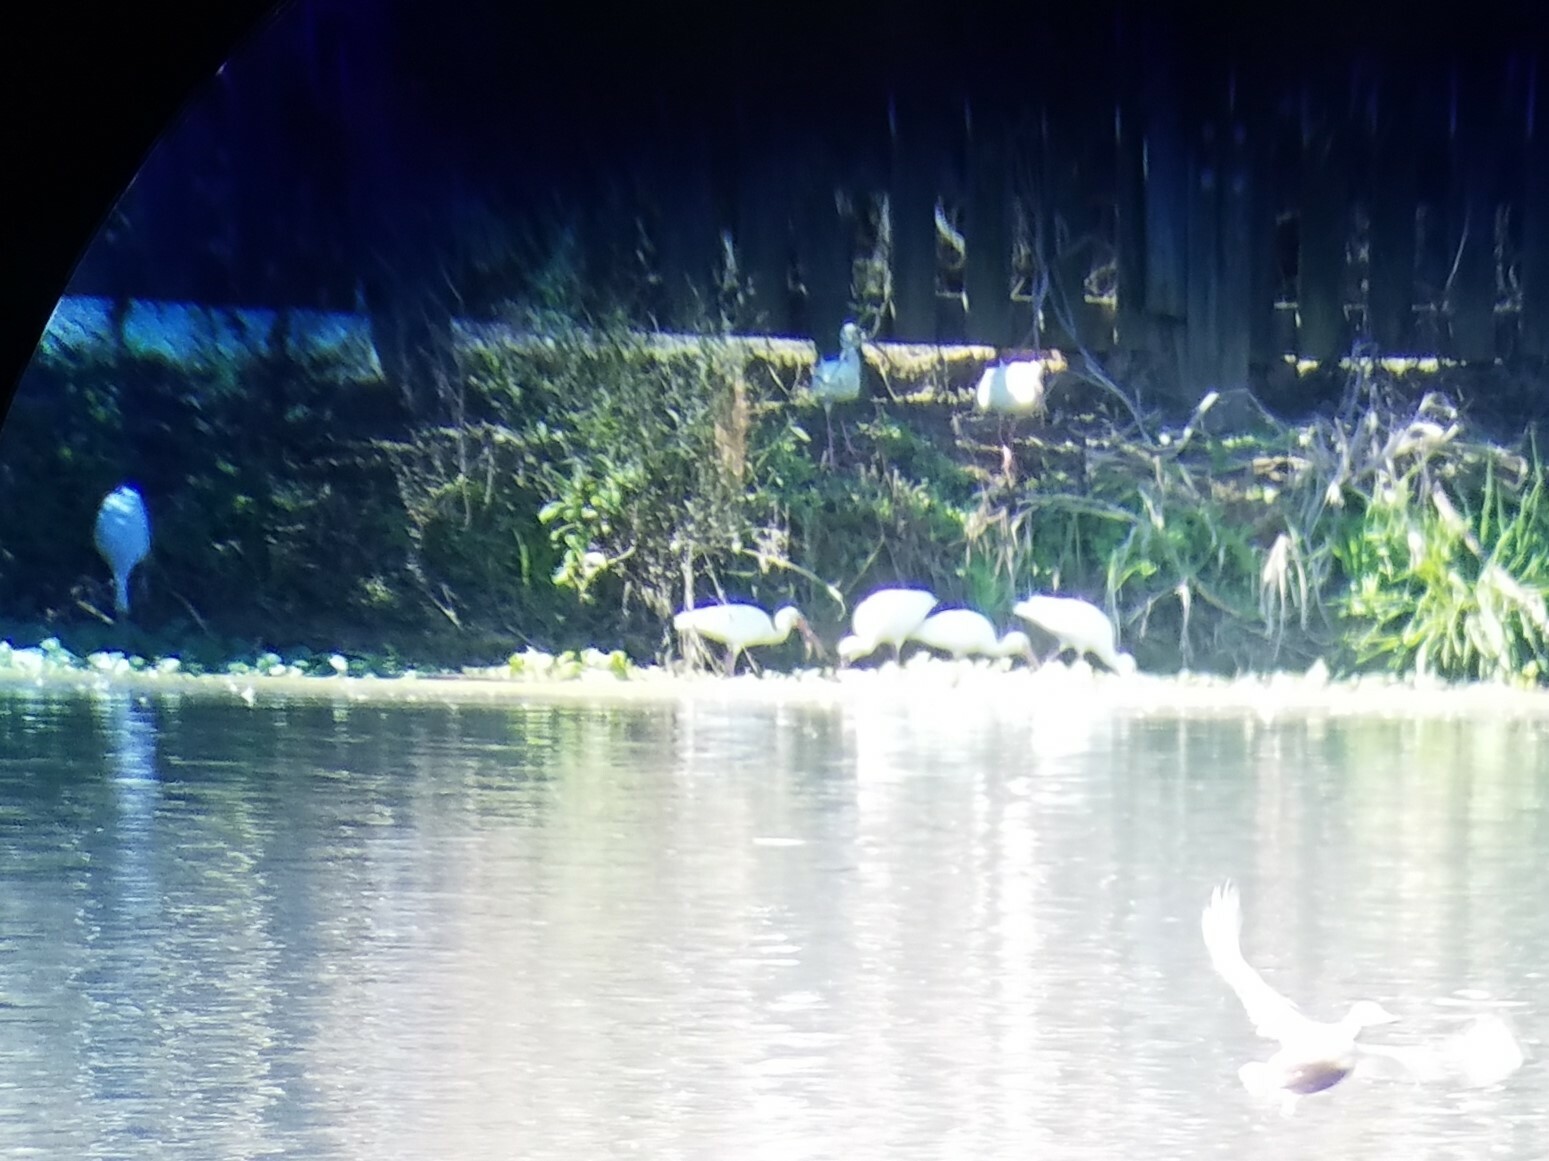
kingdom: Animalia
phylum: Chordata
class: Aves
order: Pelecaniformes
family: Threskiornithidae
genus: Eudocimus
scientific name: Eudocimus albus
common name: White ibis
